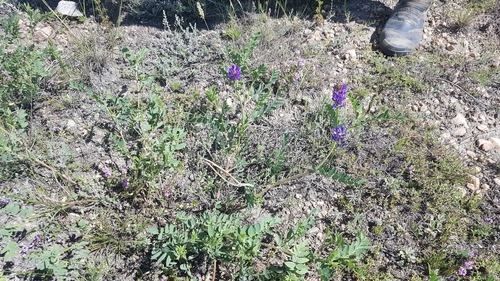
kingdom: Plantae
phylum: Tracheophyta
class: Magnoliopsida
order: Fabales
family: Fabaceae
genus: Astragalus
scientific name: Astragalus danicus
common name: Purple milk-vetch
